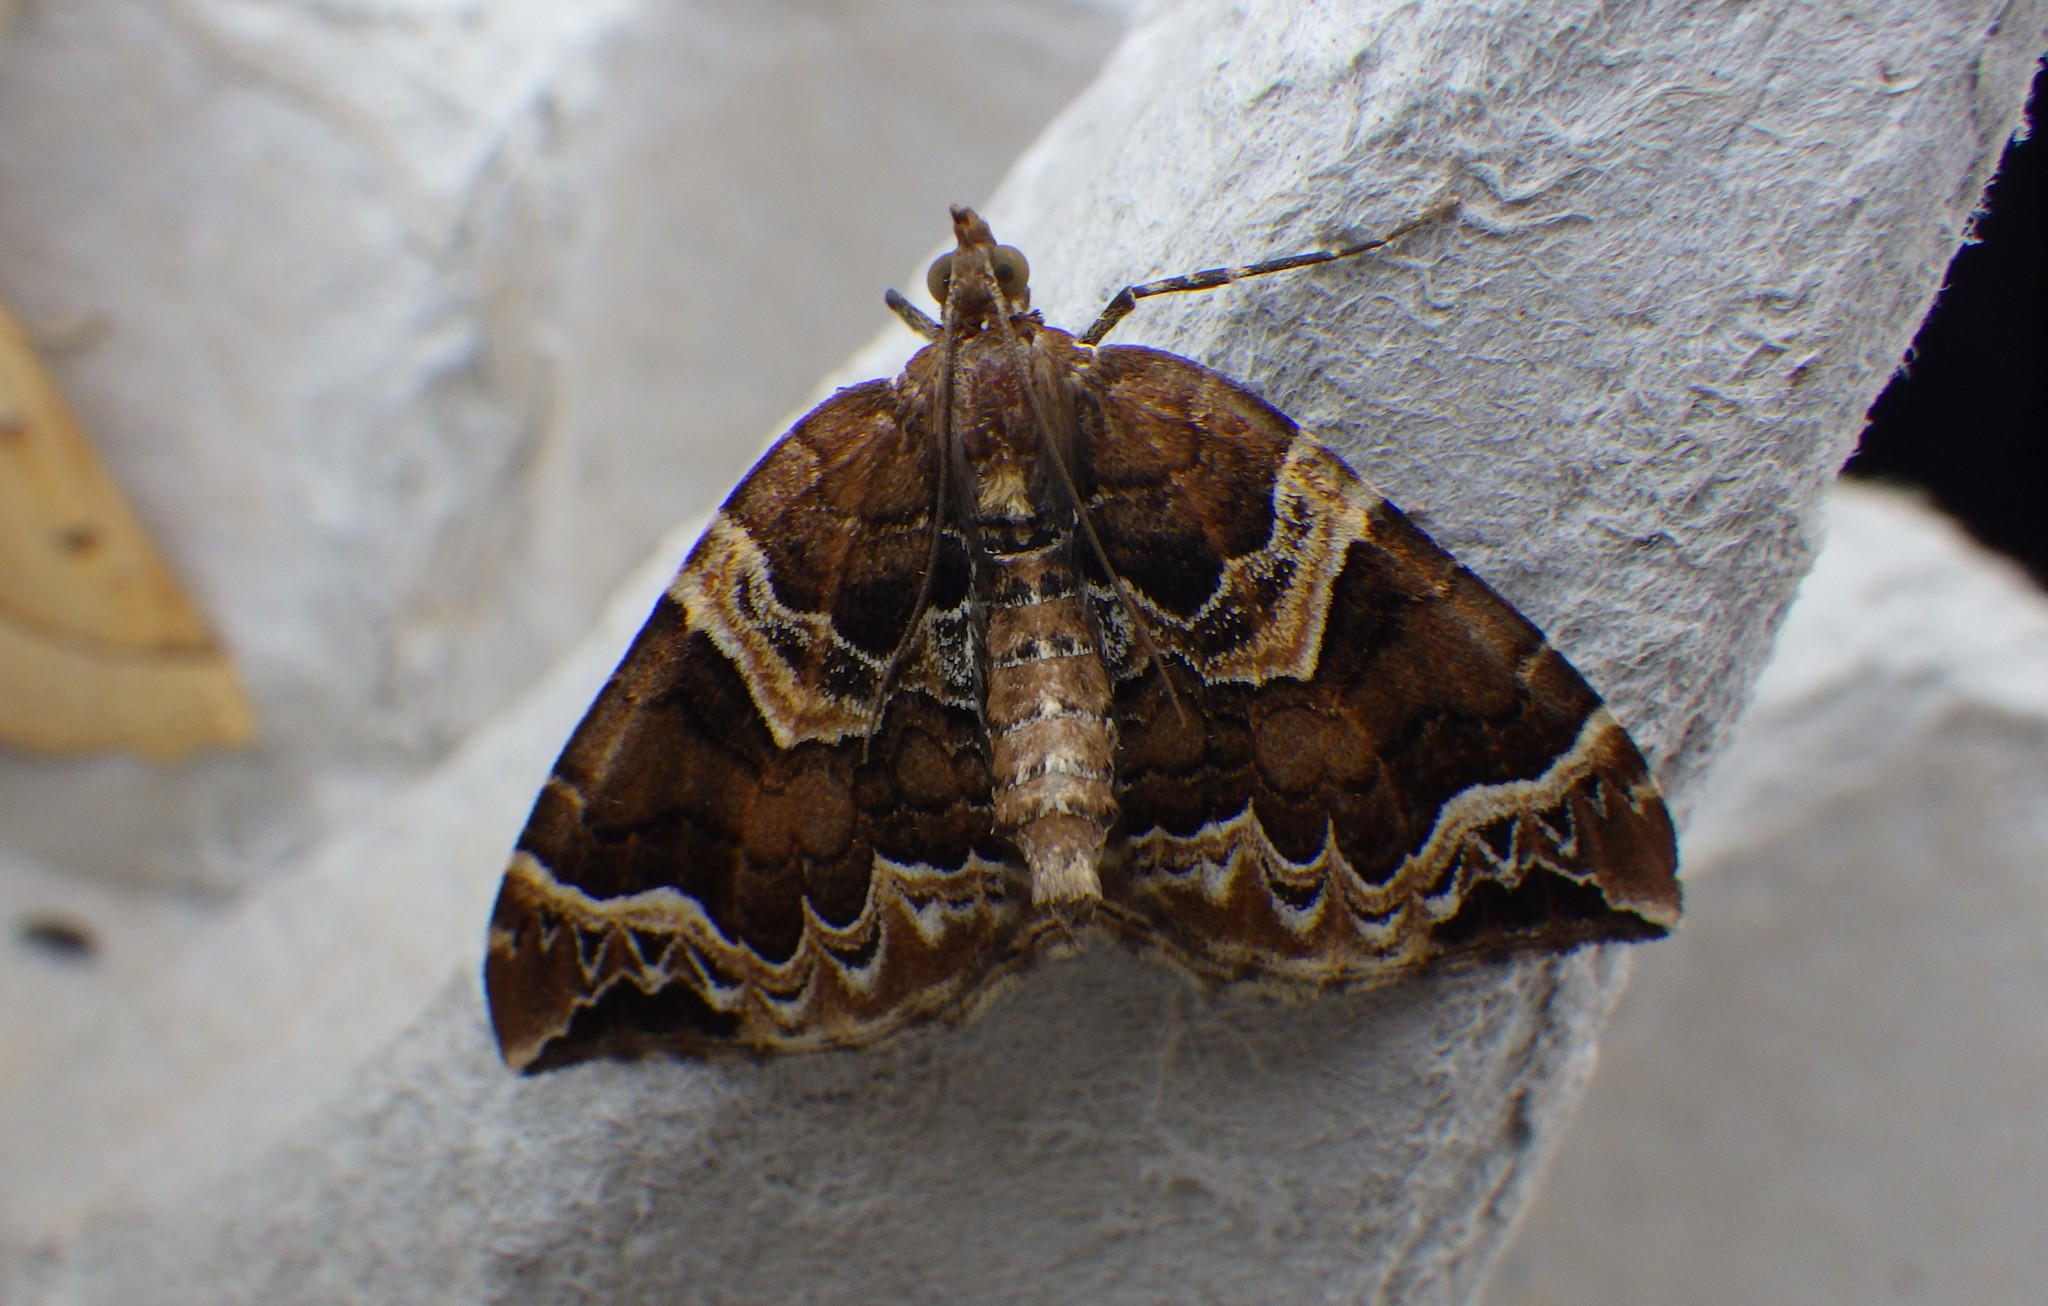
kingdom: Animalia
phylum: Arthropoda
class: Insecta
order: Lepidoptera
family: Geometridae
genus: Eulithis
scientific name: Eulithis prunata
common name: Phoenix
